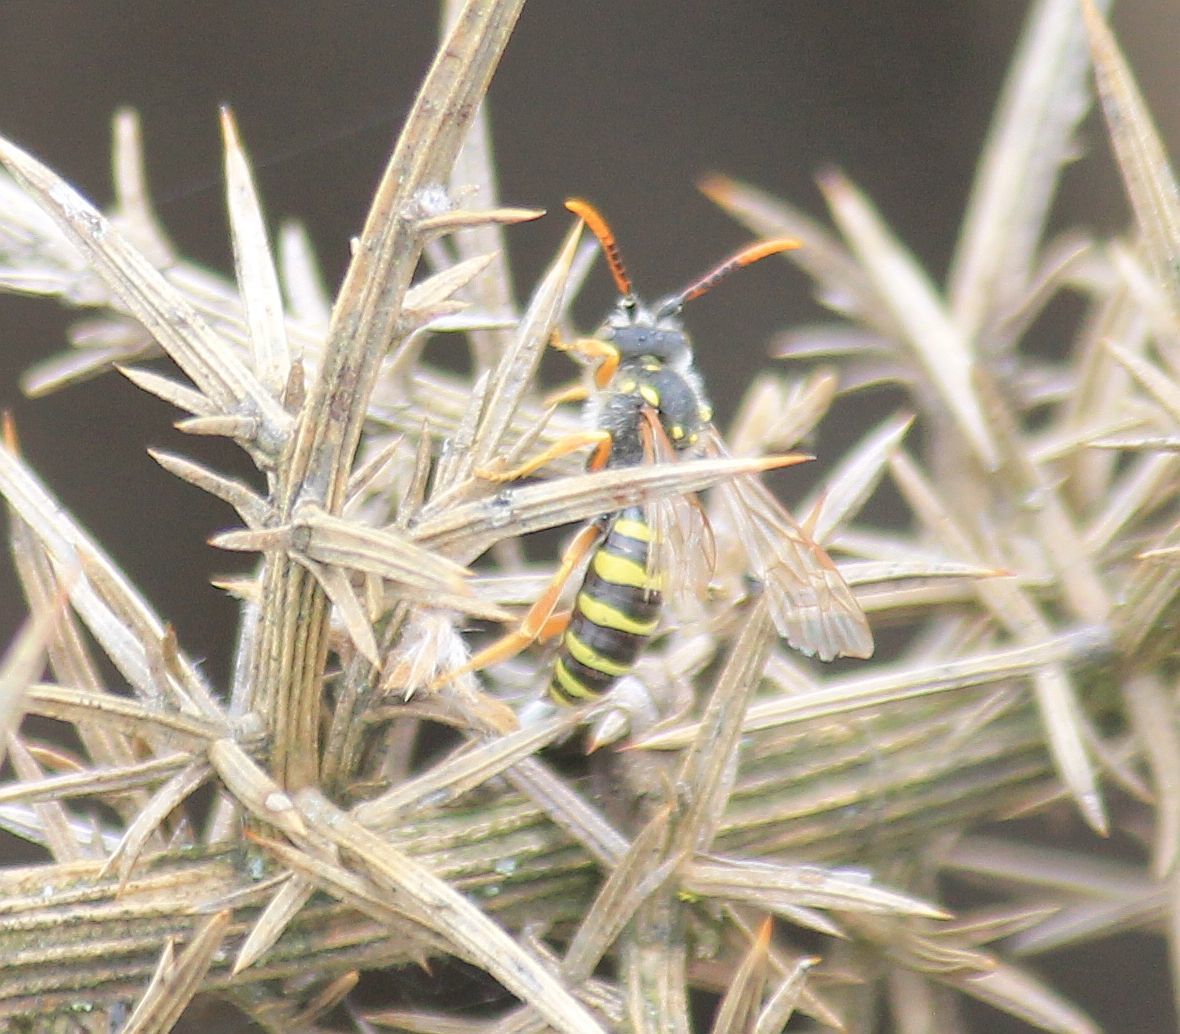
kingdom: Animalia
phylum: Arthropoda
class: Insecta
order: Hymenoptera
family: Apidae
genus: Nomada
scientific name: Nomada goodeniana
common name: Gooden's nomad bee
